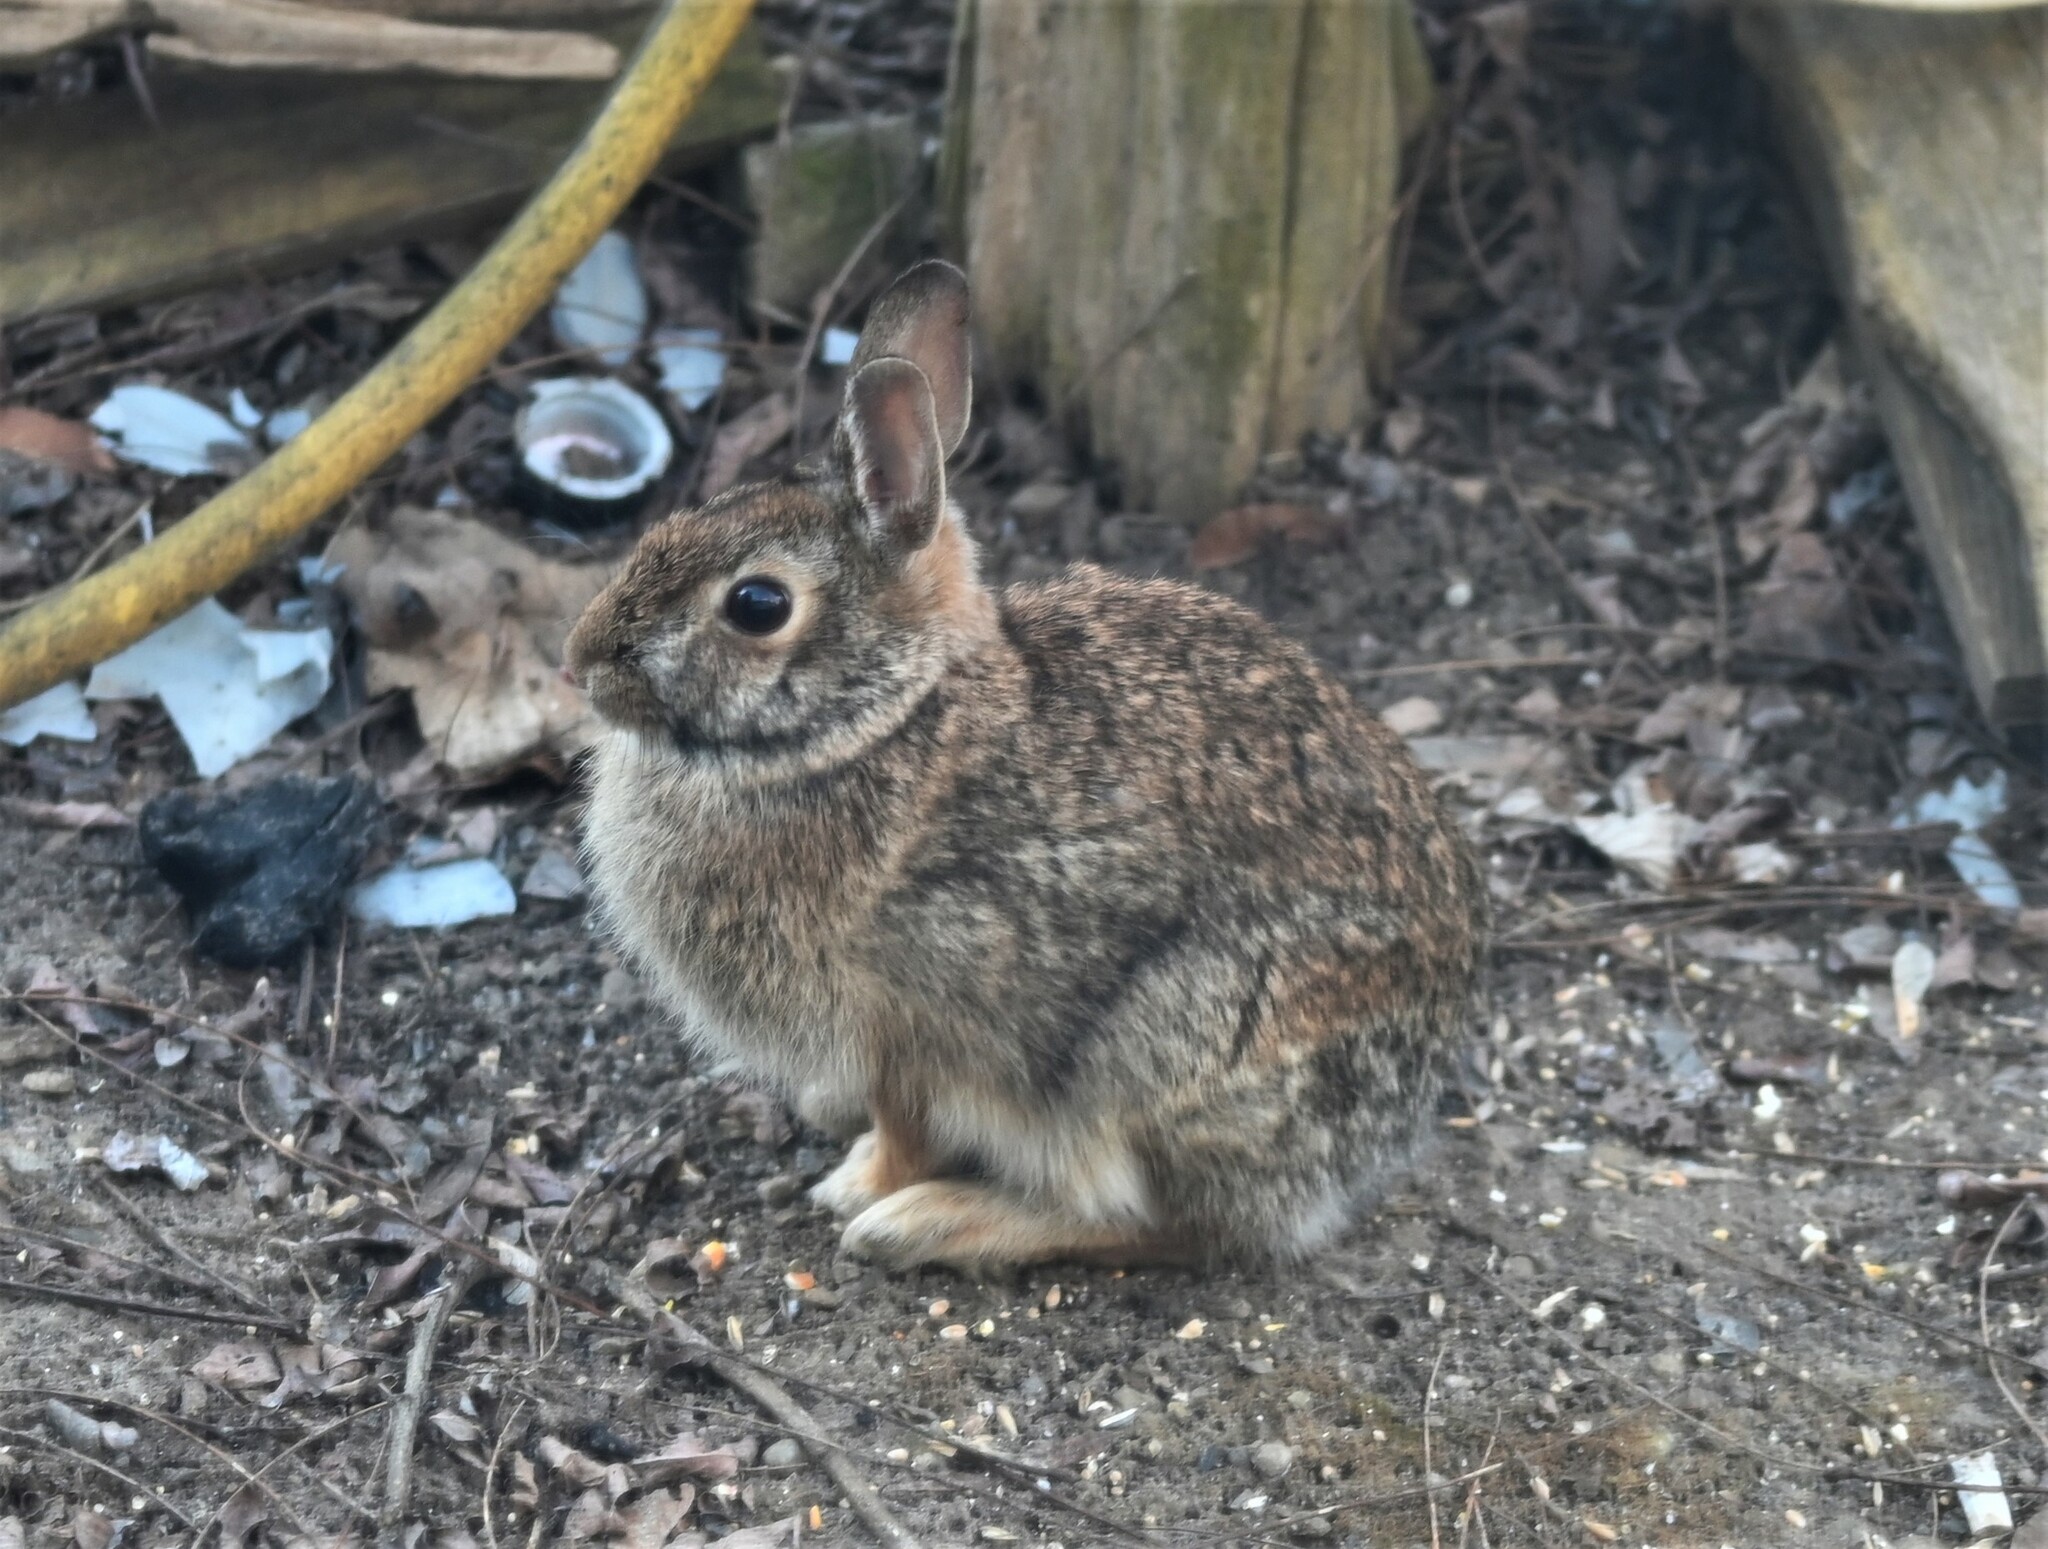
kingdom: Animalia
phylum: Chordata
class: Mammalia
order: Lagomorpha
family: Leporidae
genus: Sylvilagus
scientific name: Sylvilagus floridanus
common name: Eastern cottontail
